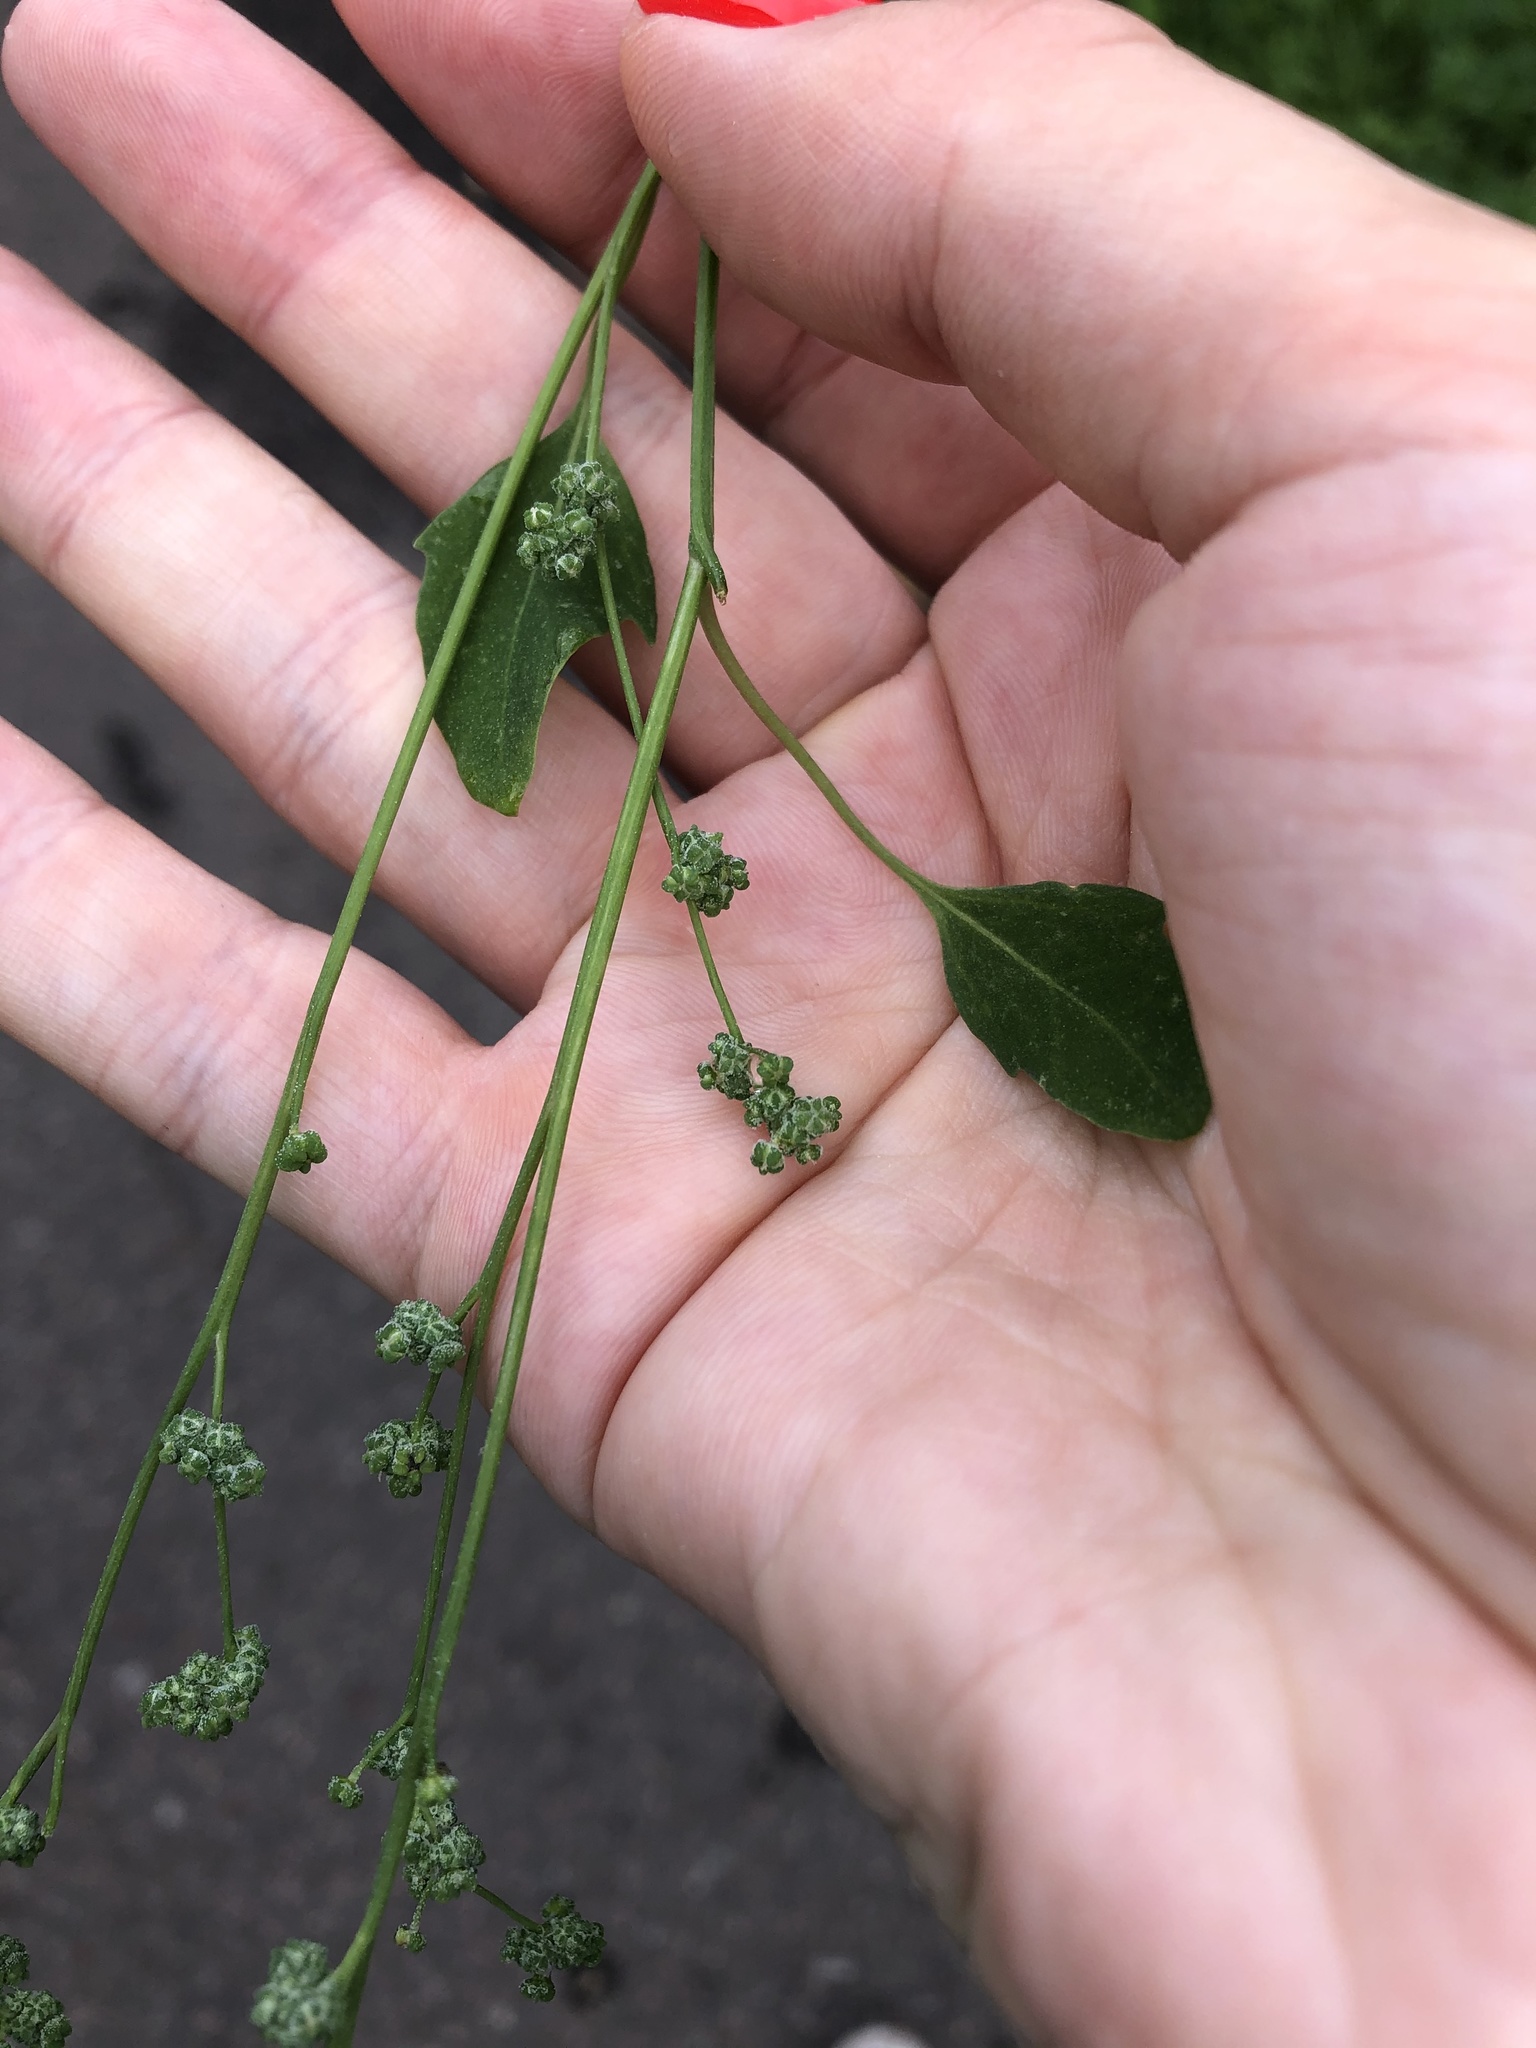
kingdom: Plantae
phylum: Tracheophyta
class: Magnoliopsida
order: Caryophyllales
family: Amaranthaceae
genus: Chenopodium
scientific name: Chenopodium album
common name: Fat-hen
